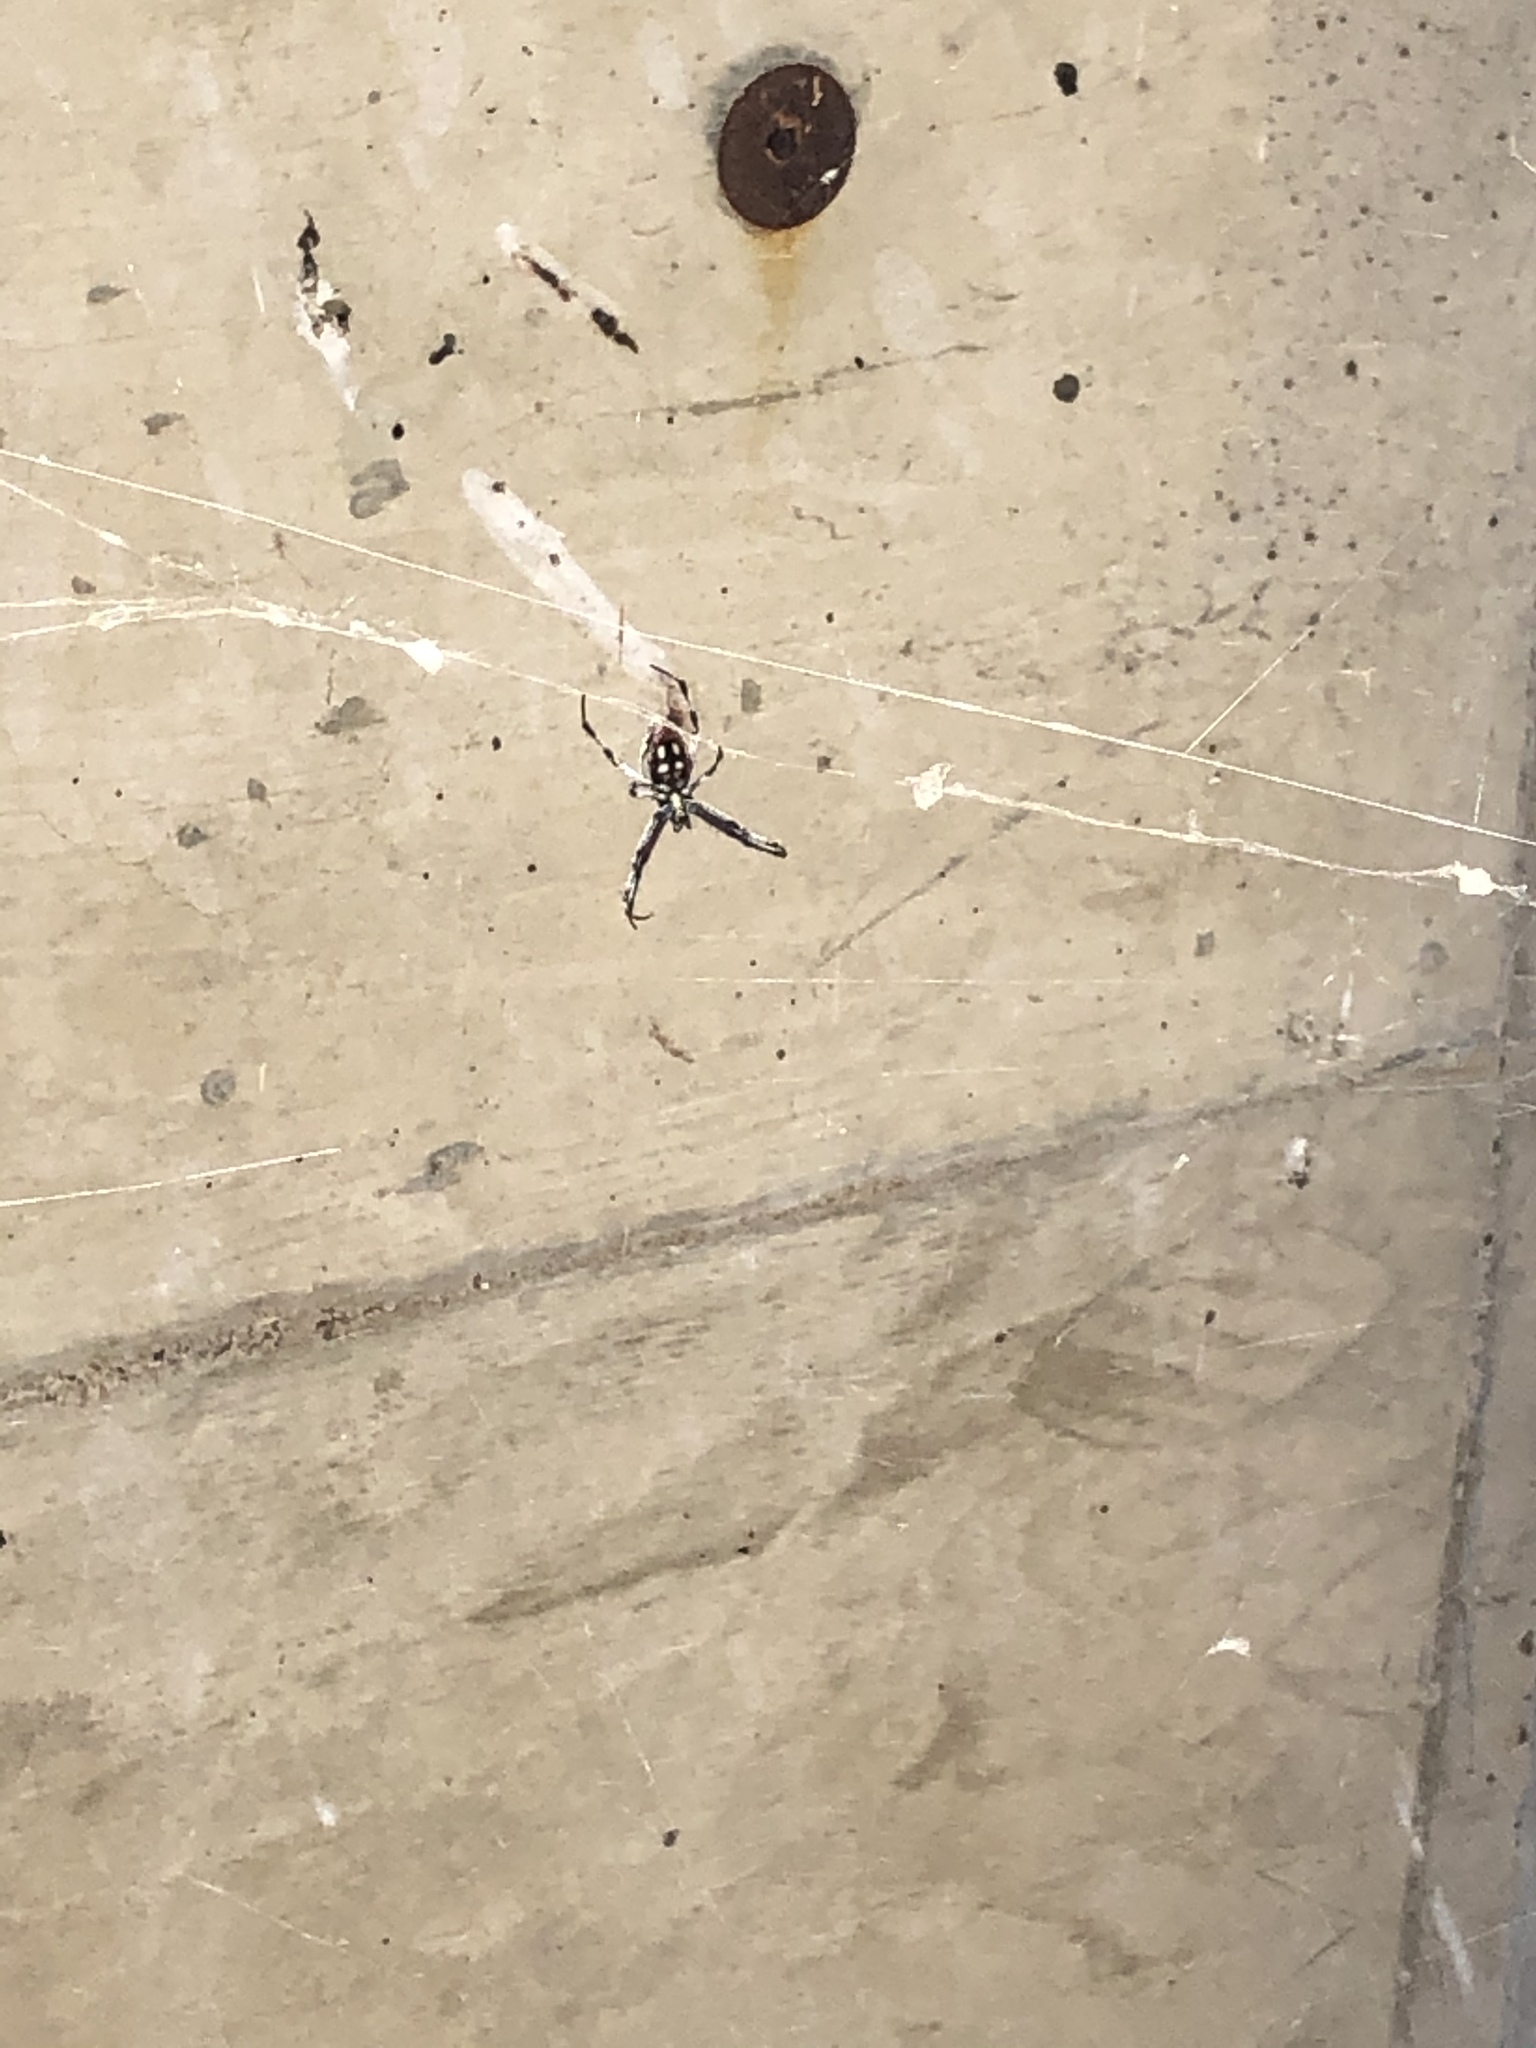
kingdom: Animalia
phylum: Arthropoda
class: Arachnida
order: Araneae
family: Araneidae
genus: Neoscona
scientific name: Neoscona oaxacensis
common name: Orb weavers
